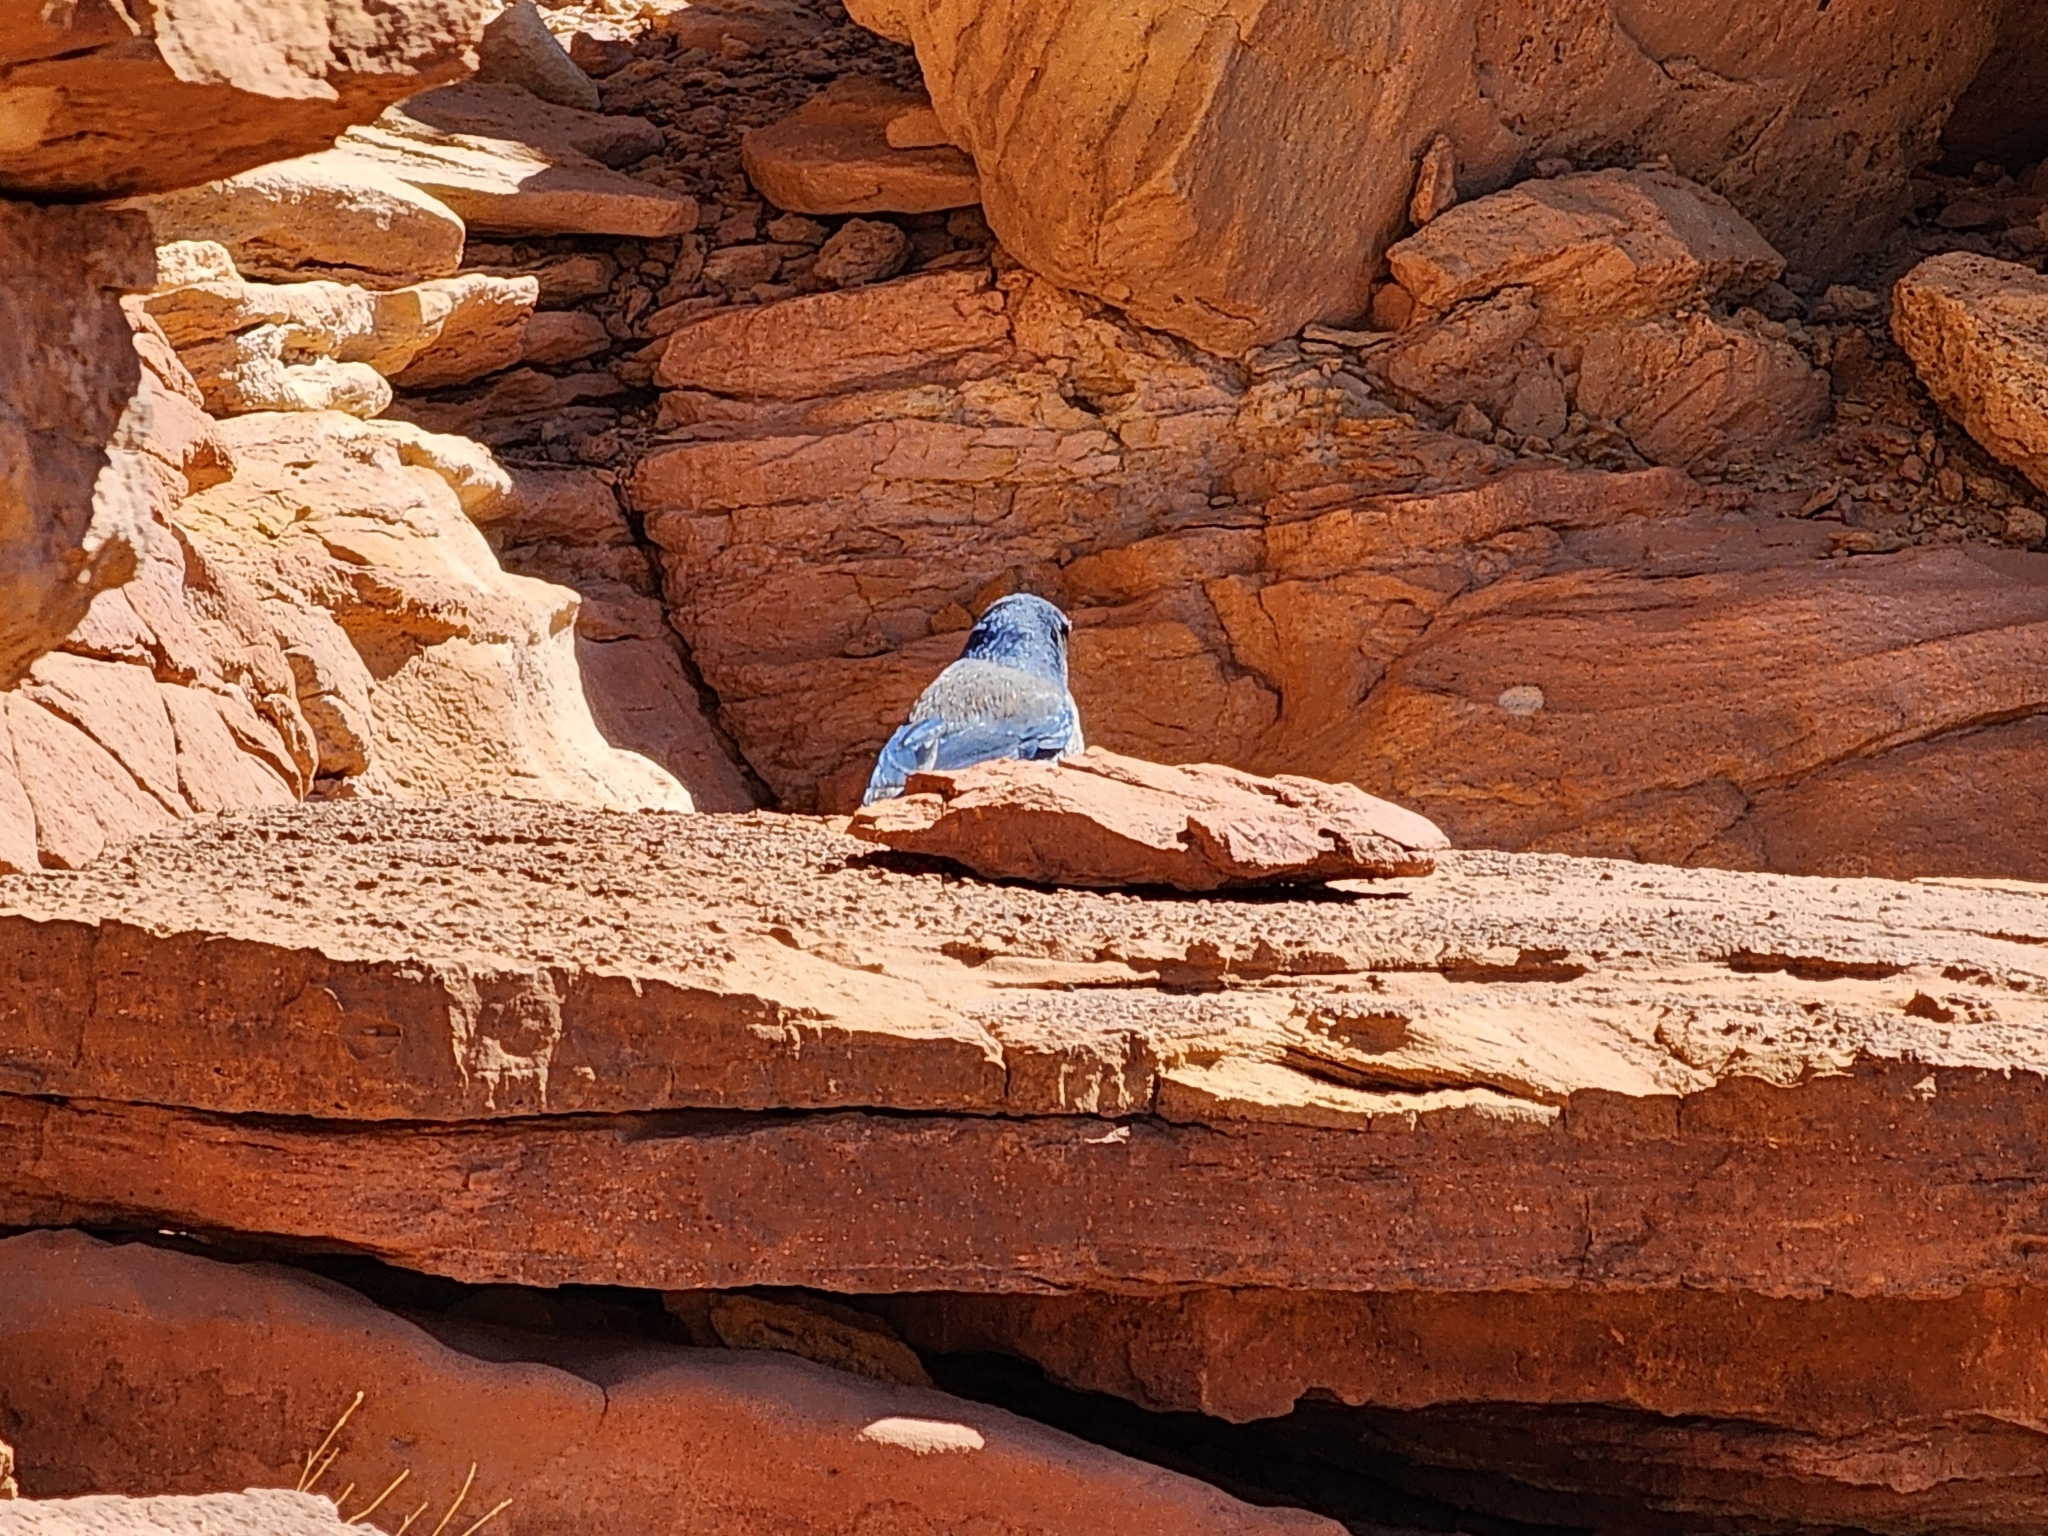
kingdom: Animalia
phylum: Chordata
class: Aves
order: Passeriformes
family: Corvidae
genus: Aphelocoma
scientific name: Aphelocoma woodhouseii
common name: Woodhouse's scrub-jay
